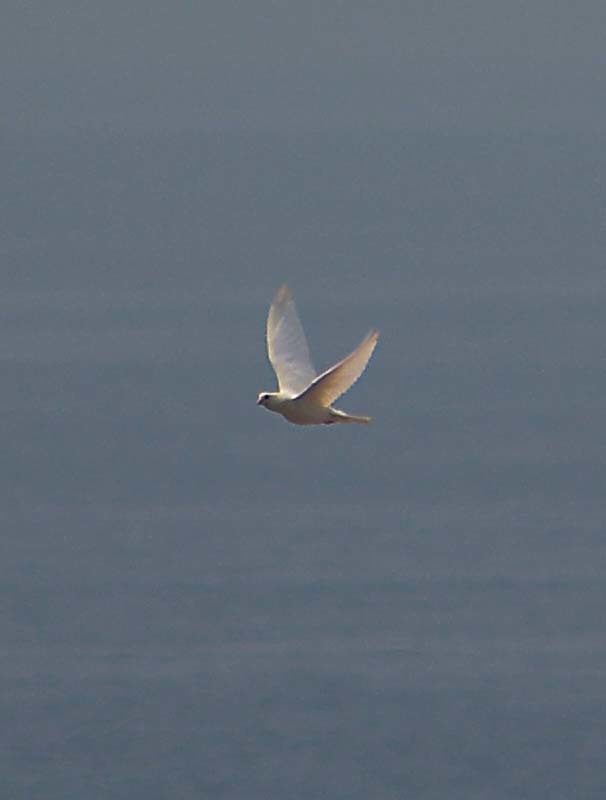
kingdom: Animalia
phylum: Chordata
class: Aves
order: Columbiformes
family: Columbidae
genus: Columba
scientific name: Columba livia
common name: Rock pigeon
